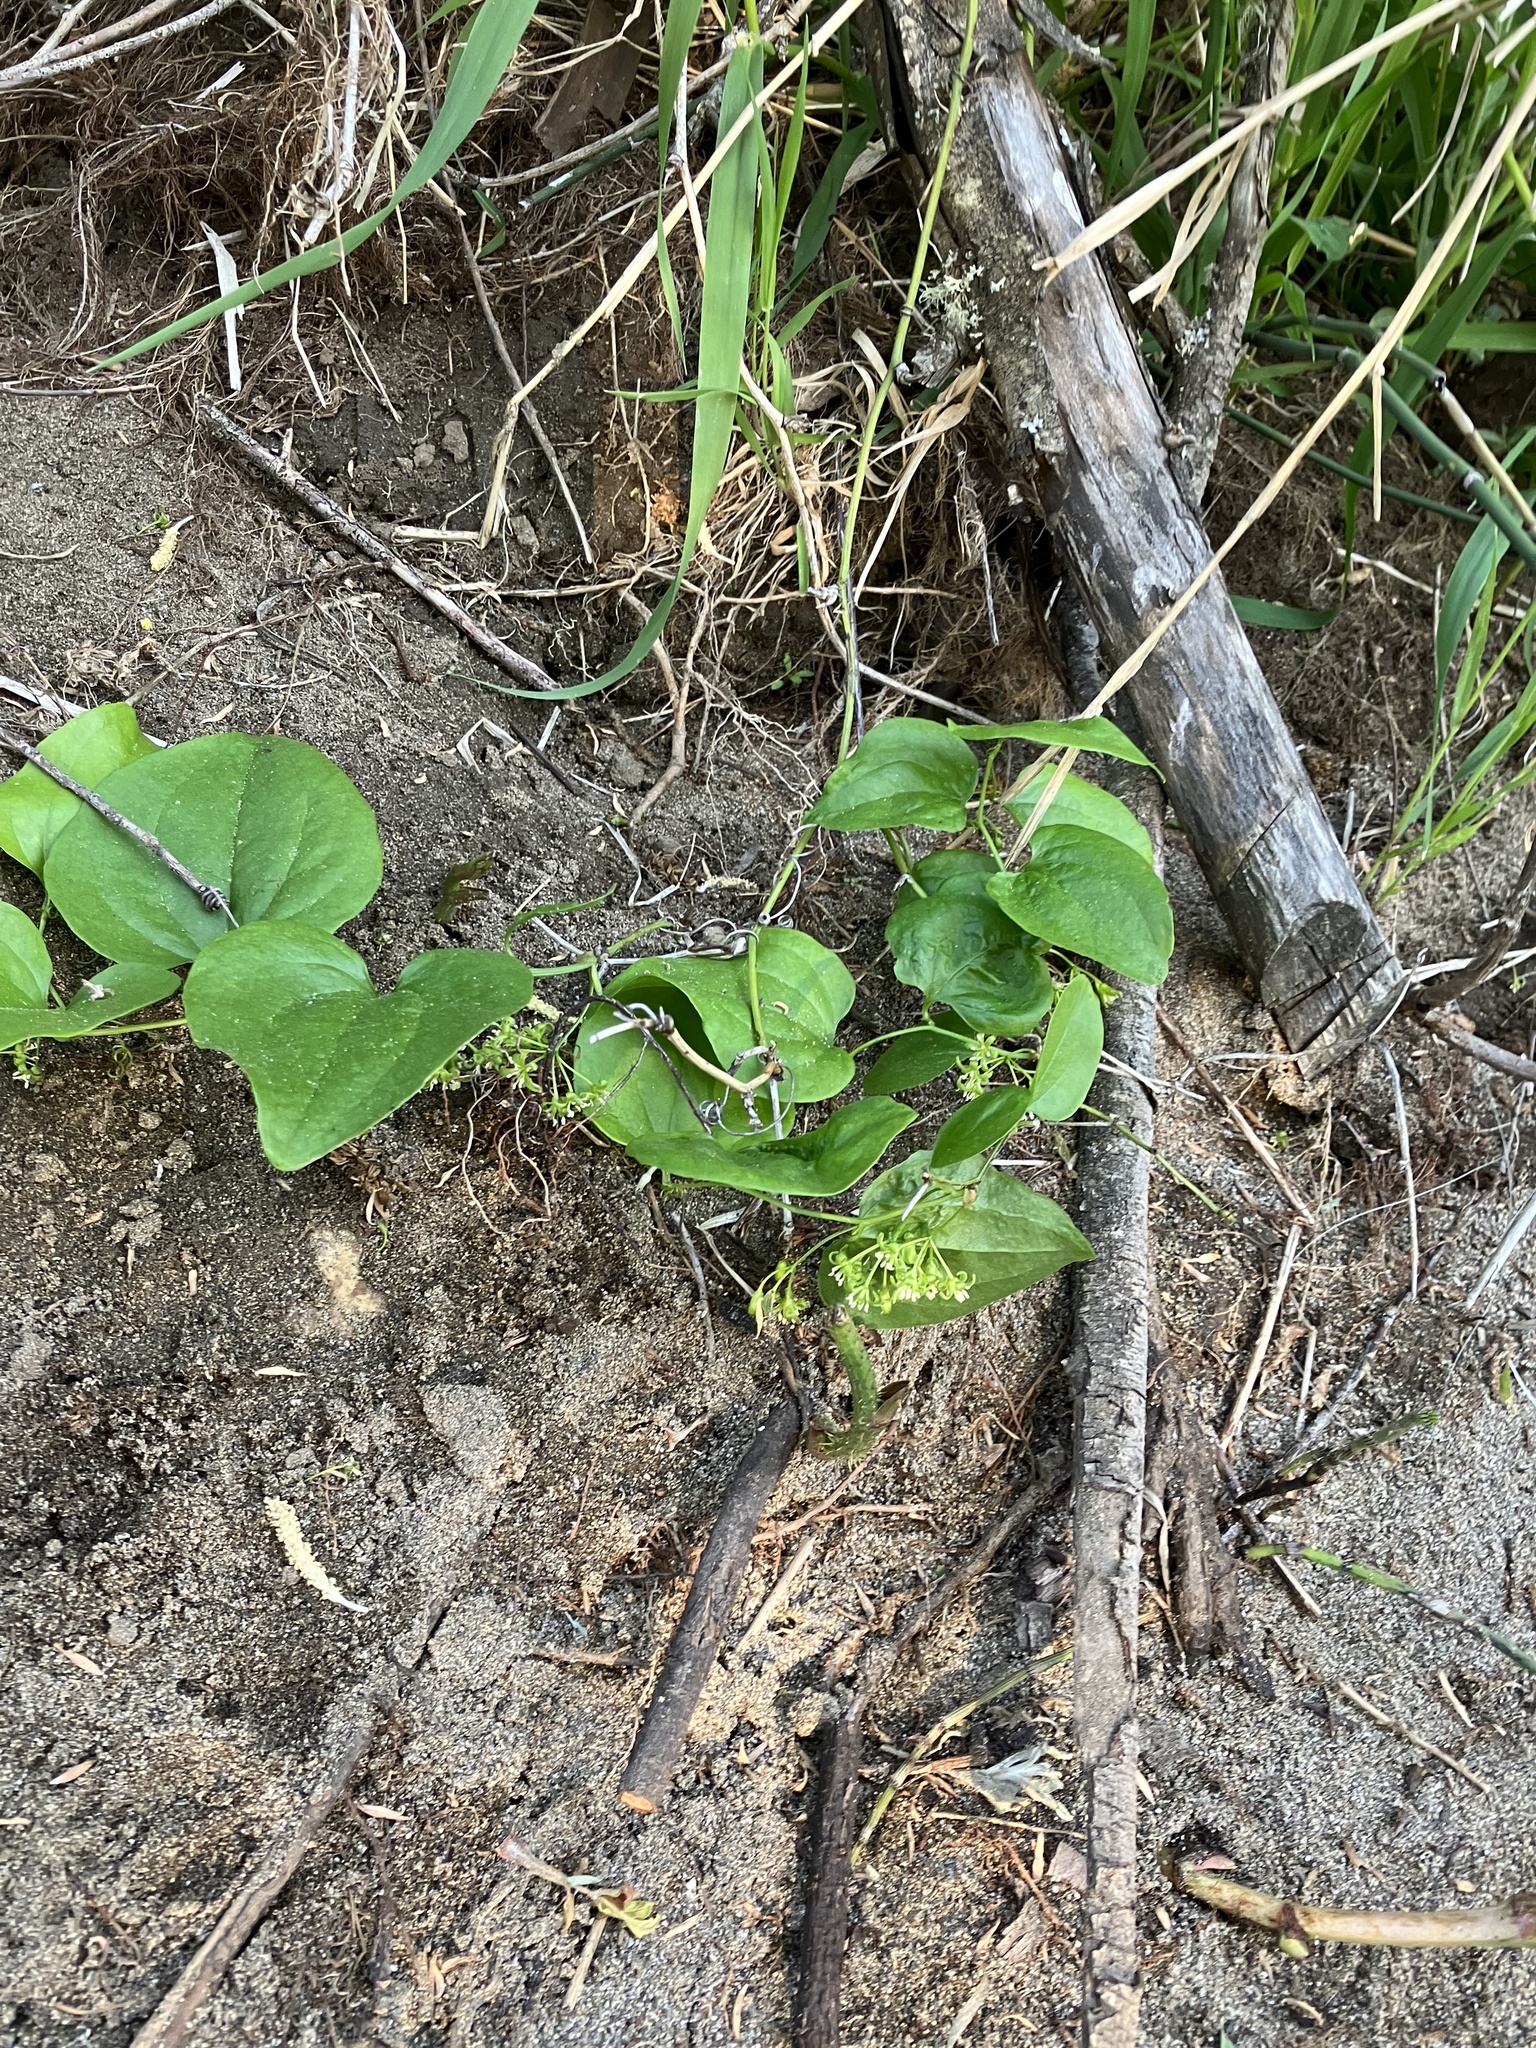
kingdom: Plantae
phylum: Tracheophyta
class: Liliopsida
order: Liliales
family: Smilacaceae
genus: Smilax
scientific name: Smilax californica
